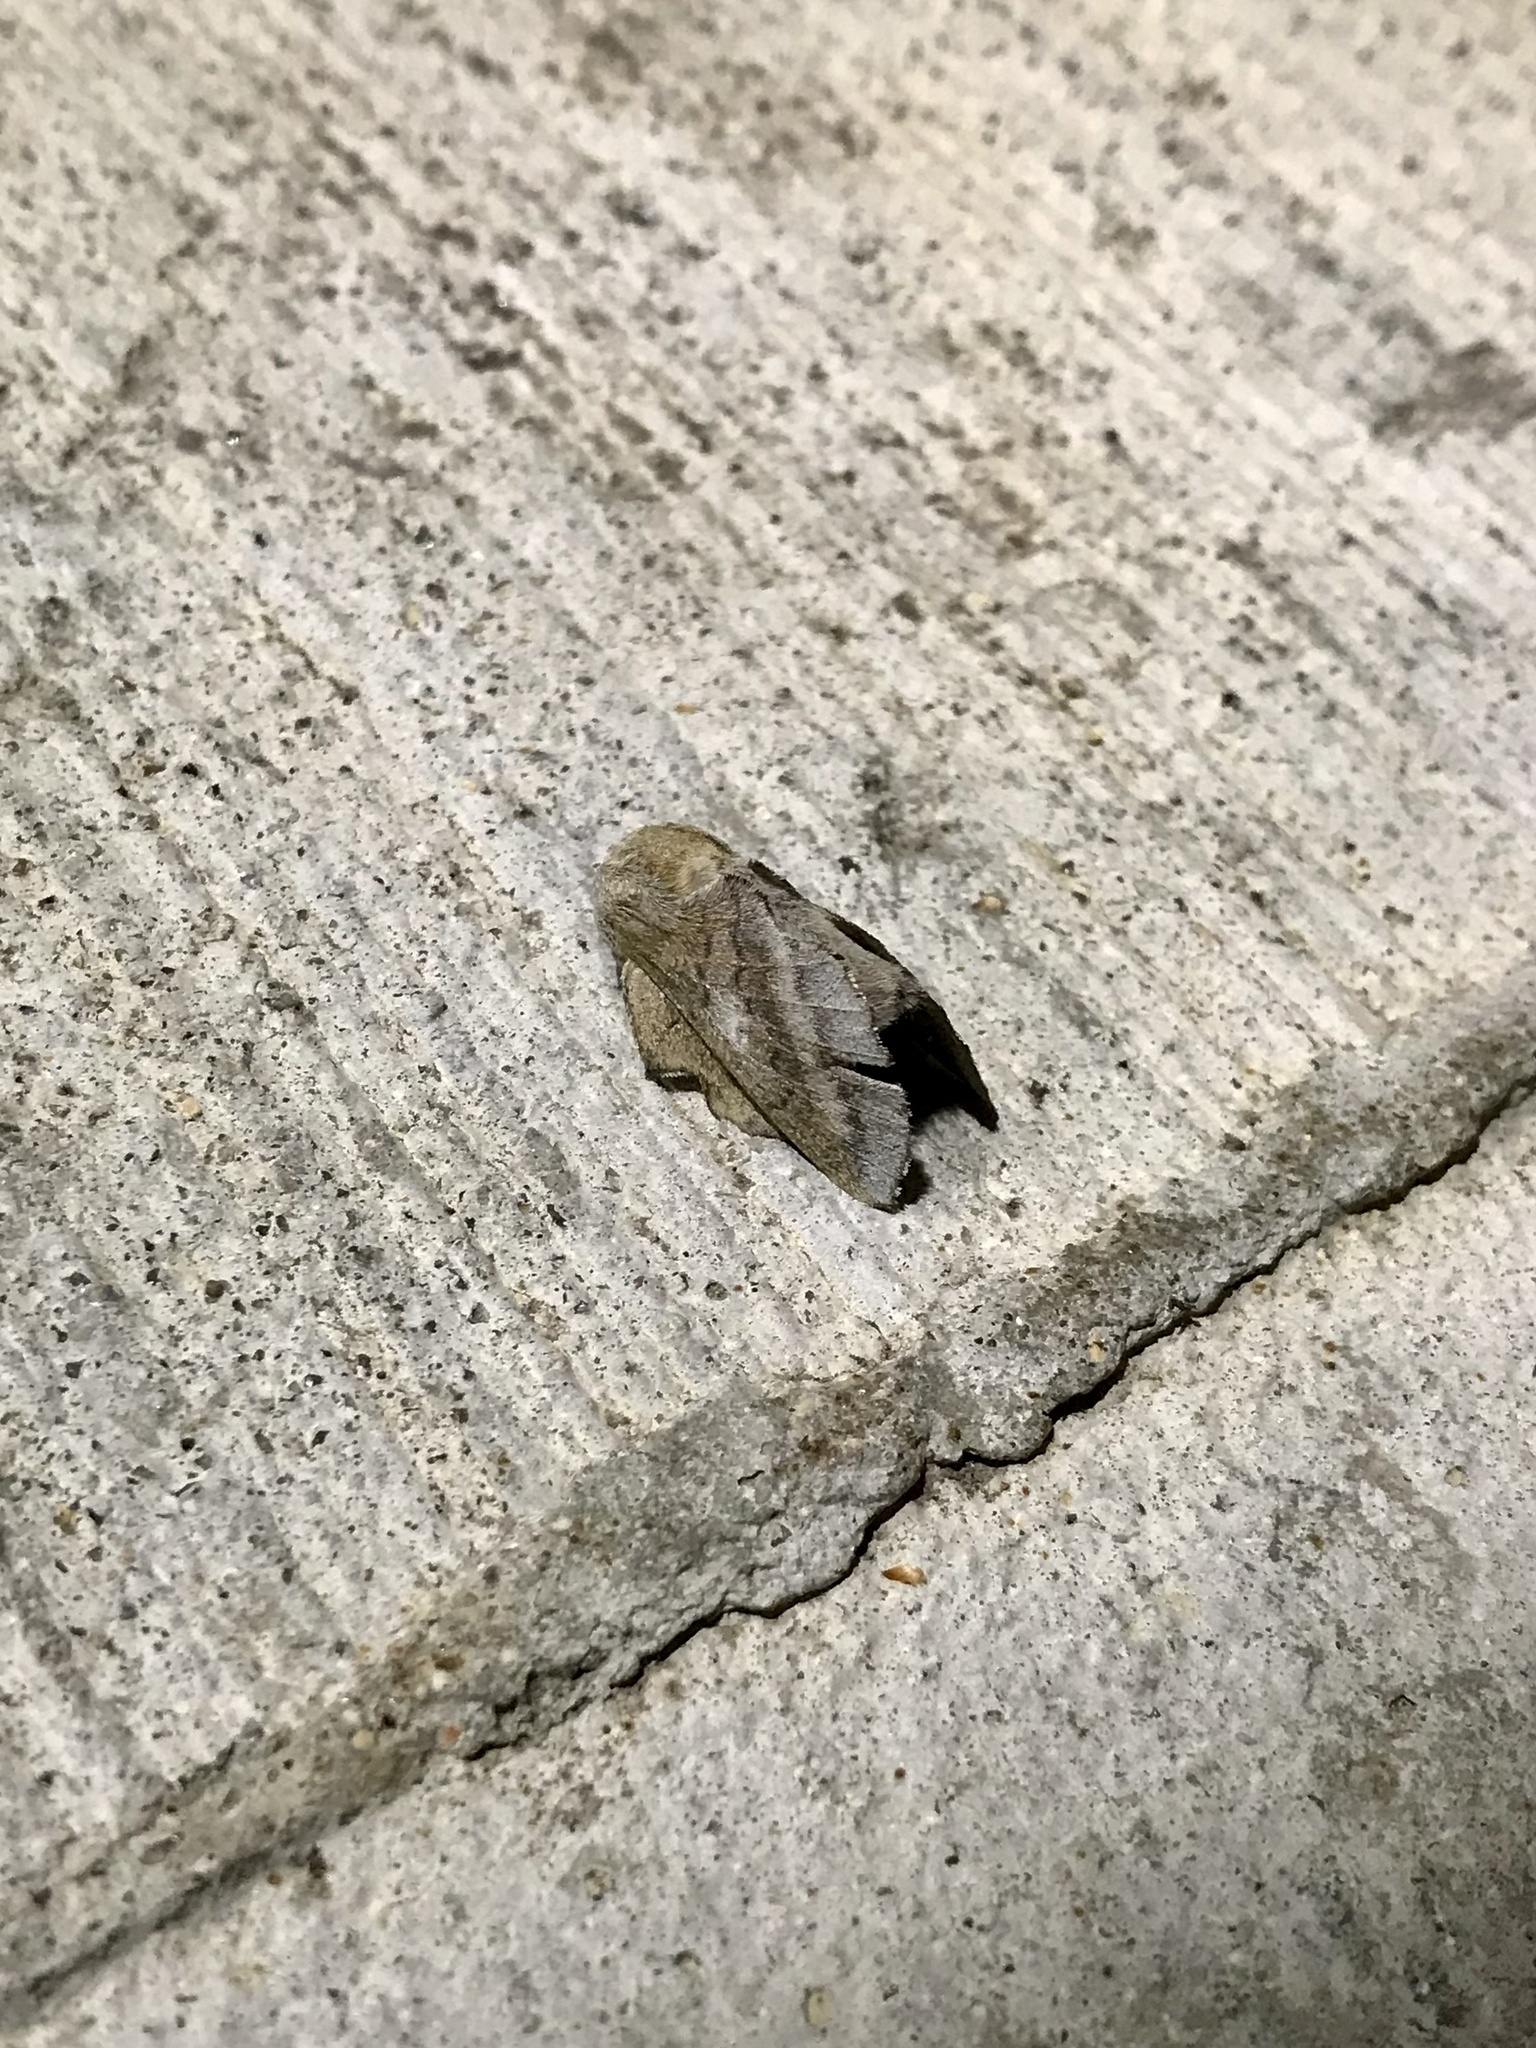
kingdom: Animalia
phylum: Arthropoda
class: Insecta
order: Lepidoptera
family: Lasiocampidae
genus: Phyllodesma
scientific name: Phyllodesma americana
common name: American lappet moth
